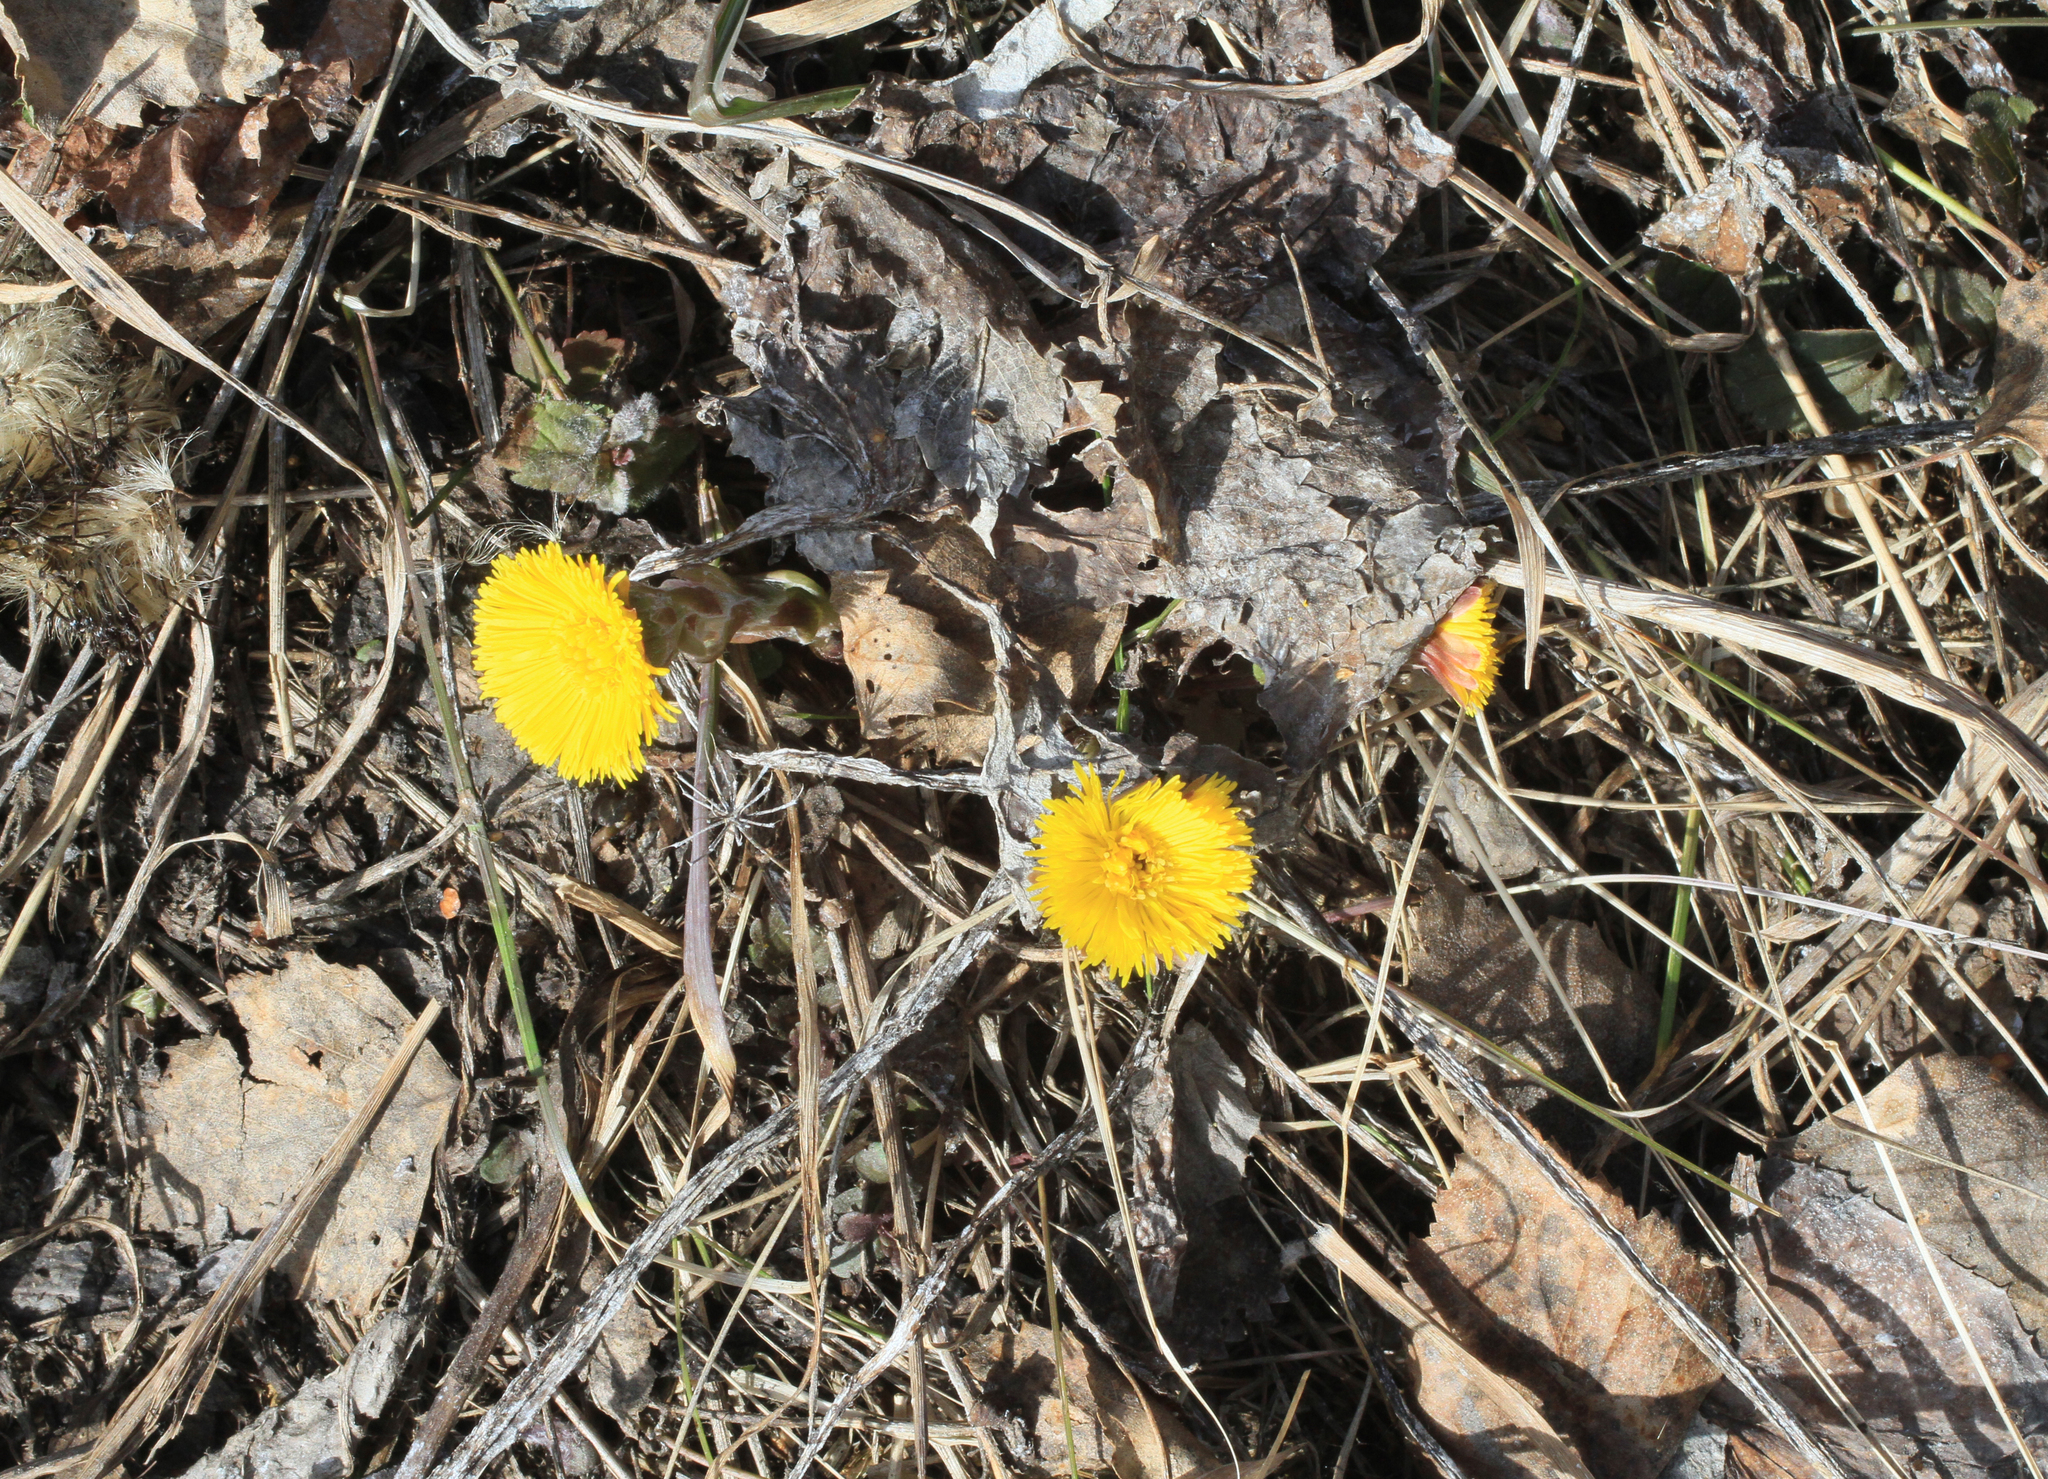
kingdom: Plantae
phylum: Tracheophyta
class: Magnoliopsida
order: Asterales
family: Asteraceae
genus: Tussilago
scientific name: Tussilago farfara
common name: Coltsfoot
